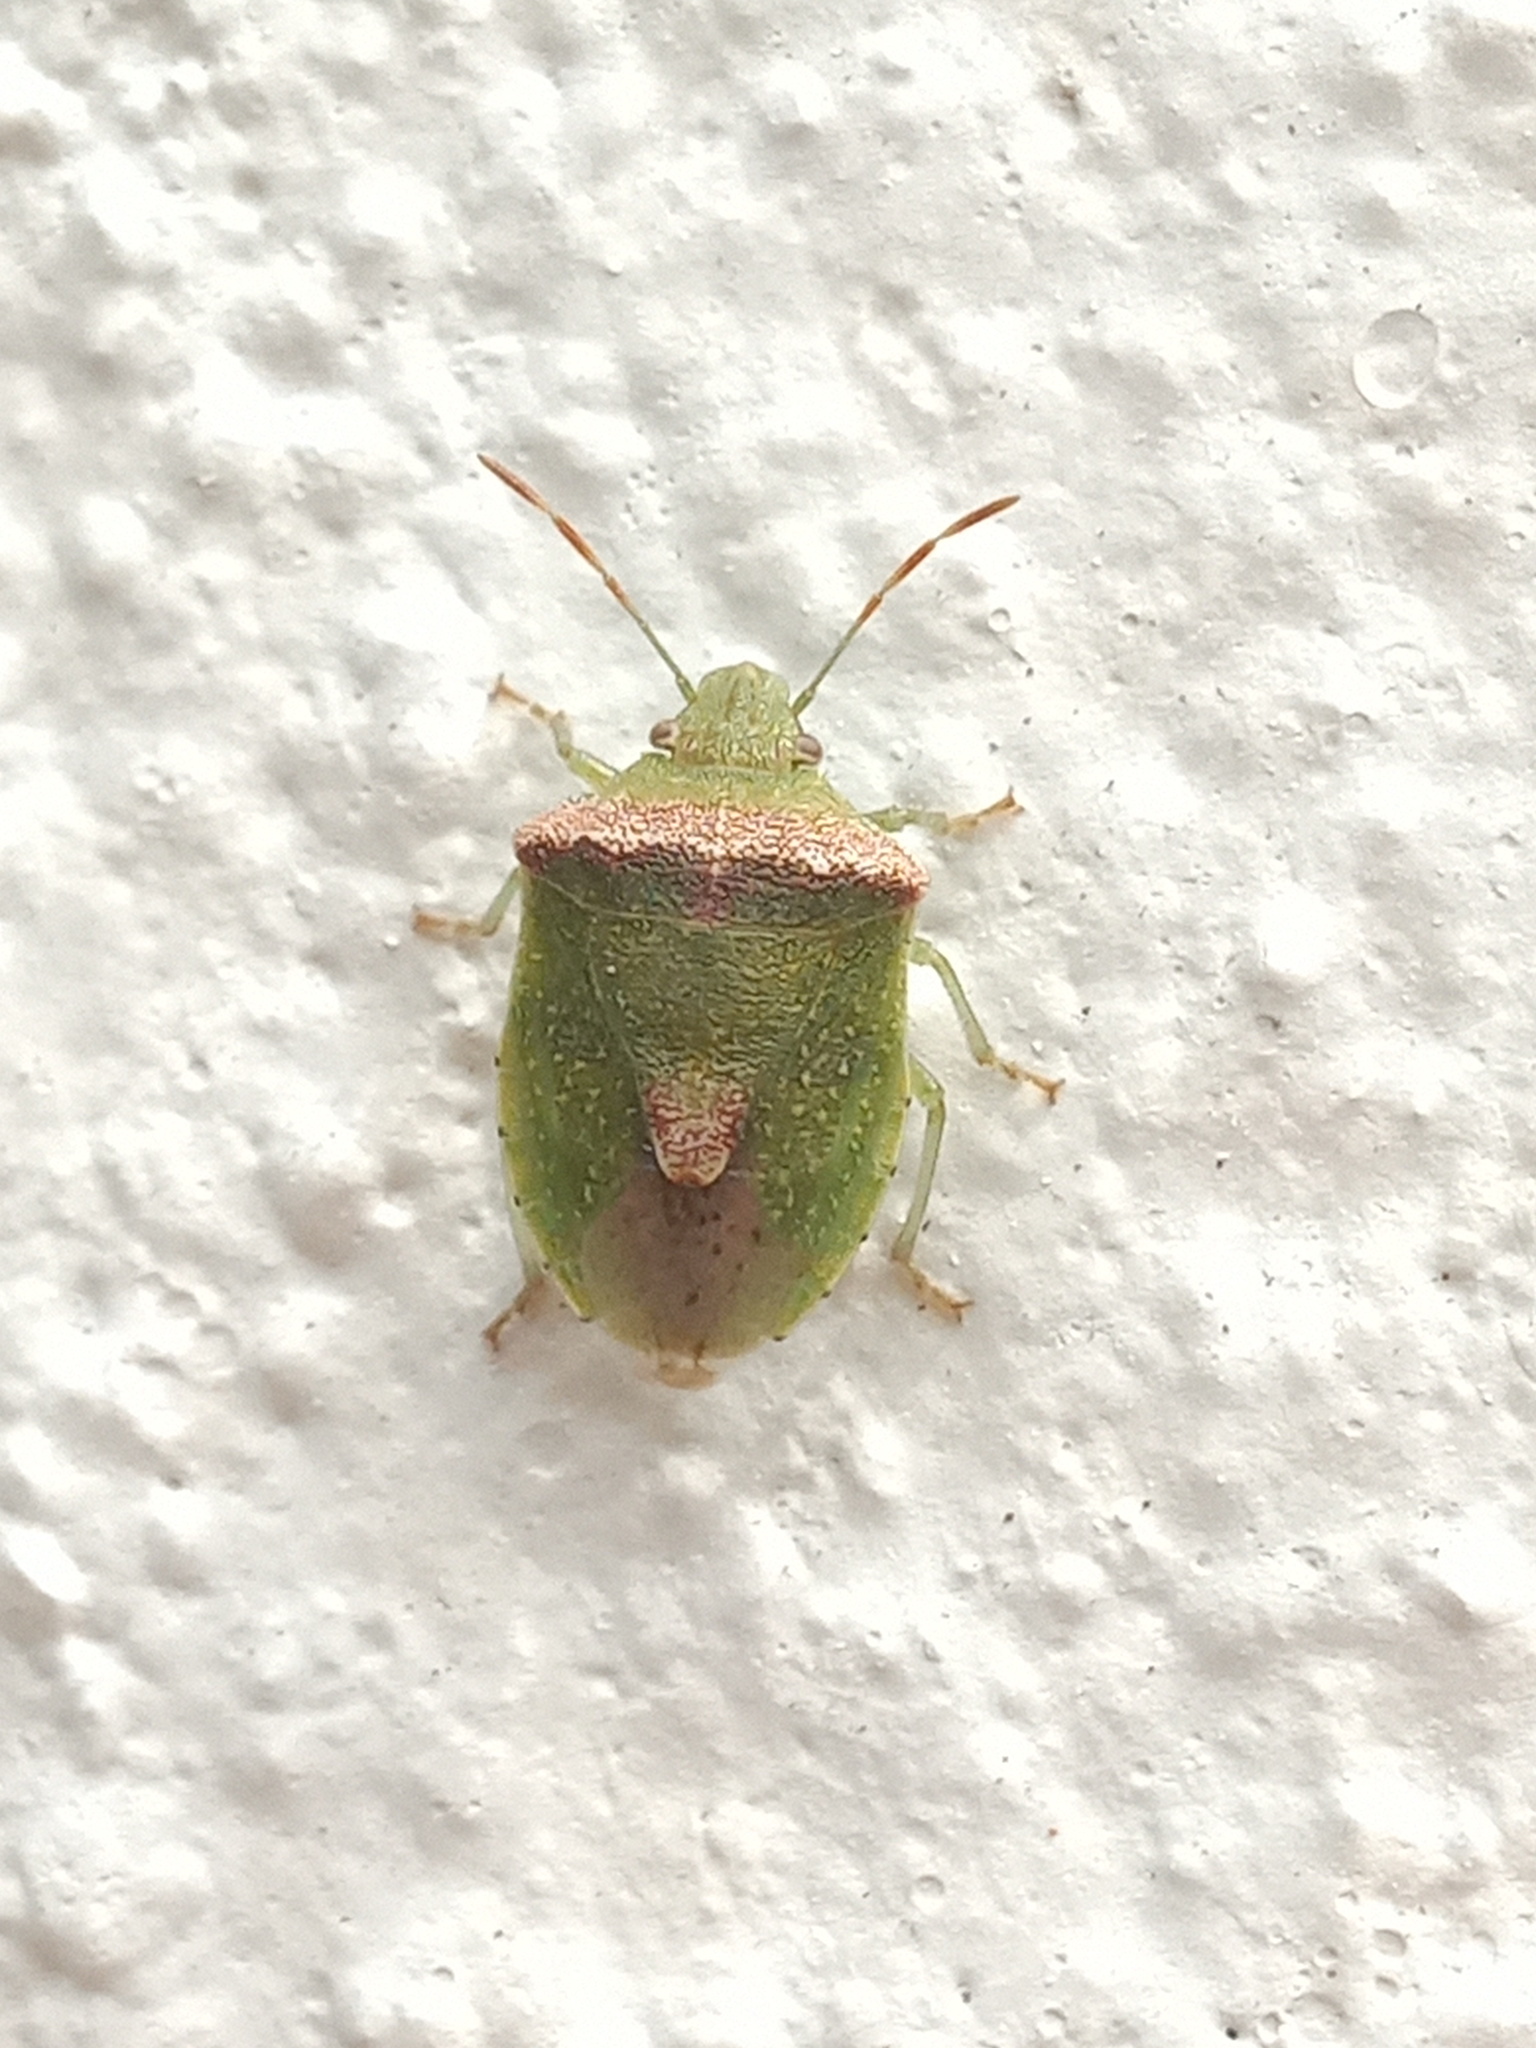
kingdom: Animalia
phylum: Arthropoda
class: Insecta
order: Hemiptera
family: Pentatomidae
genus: Cyptocephala
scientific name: Cyptocephala antiguensis
